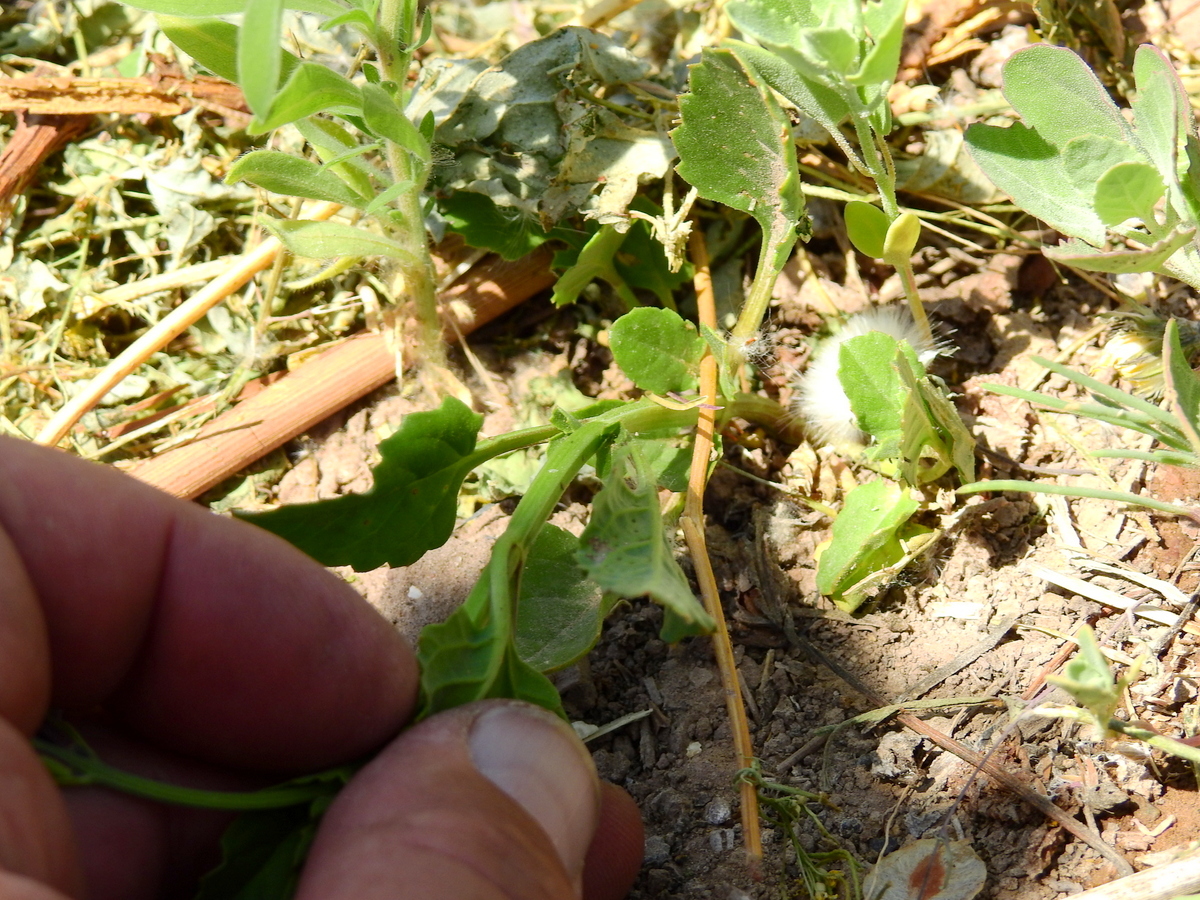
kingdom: Plantae
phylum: Tracheophyta
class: Magnoliopsida
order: Lamiales
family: Verbenaceae
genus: Pitraea
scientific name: Pitraea cuneato-ovata
